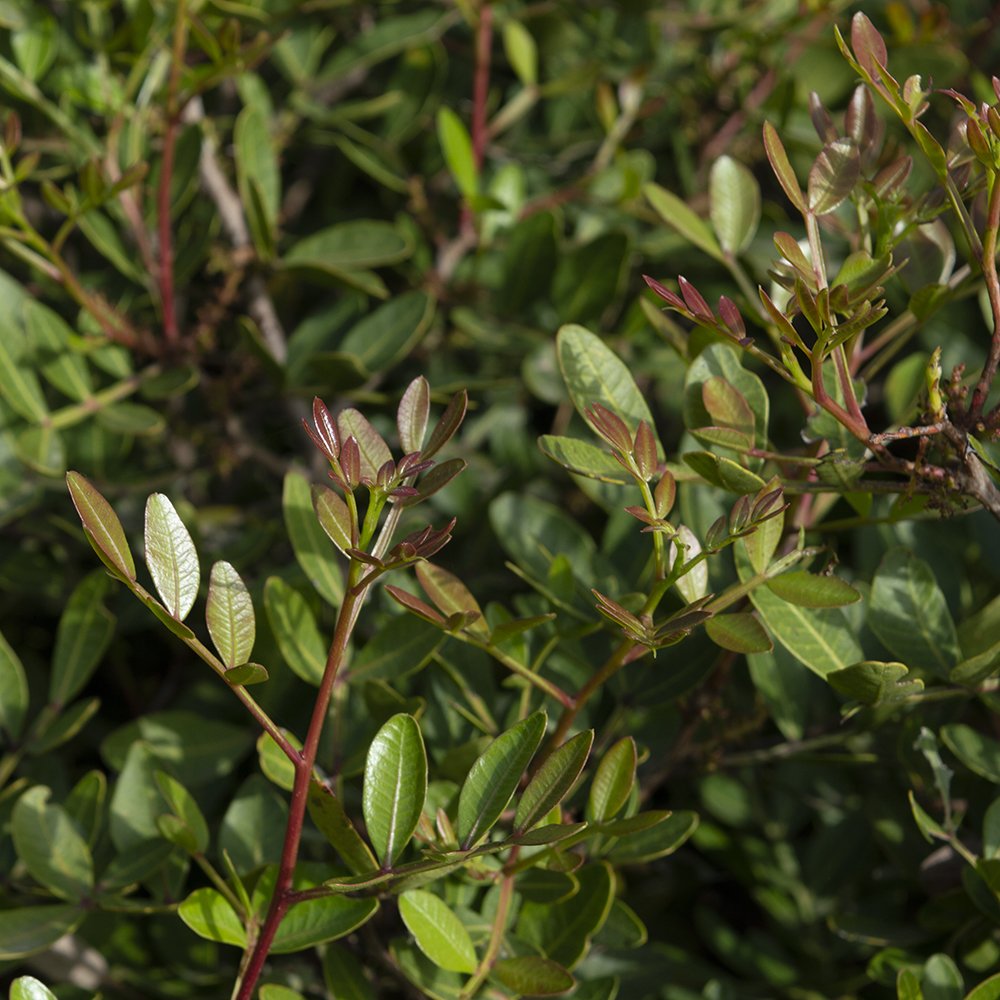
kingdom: Plantae
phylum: Tracheophyta
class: Magnoliopsida
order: Sapindales
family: Anacardiaceae
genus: Pistacia
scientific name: Pistacia lentiscus
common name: Lentisk
